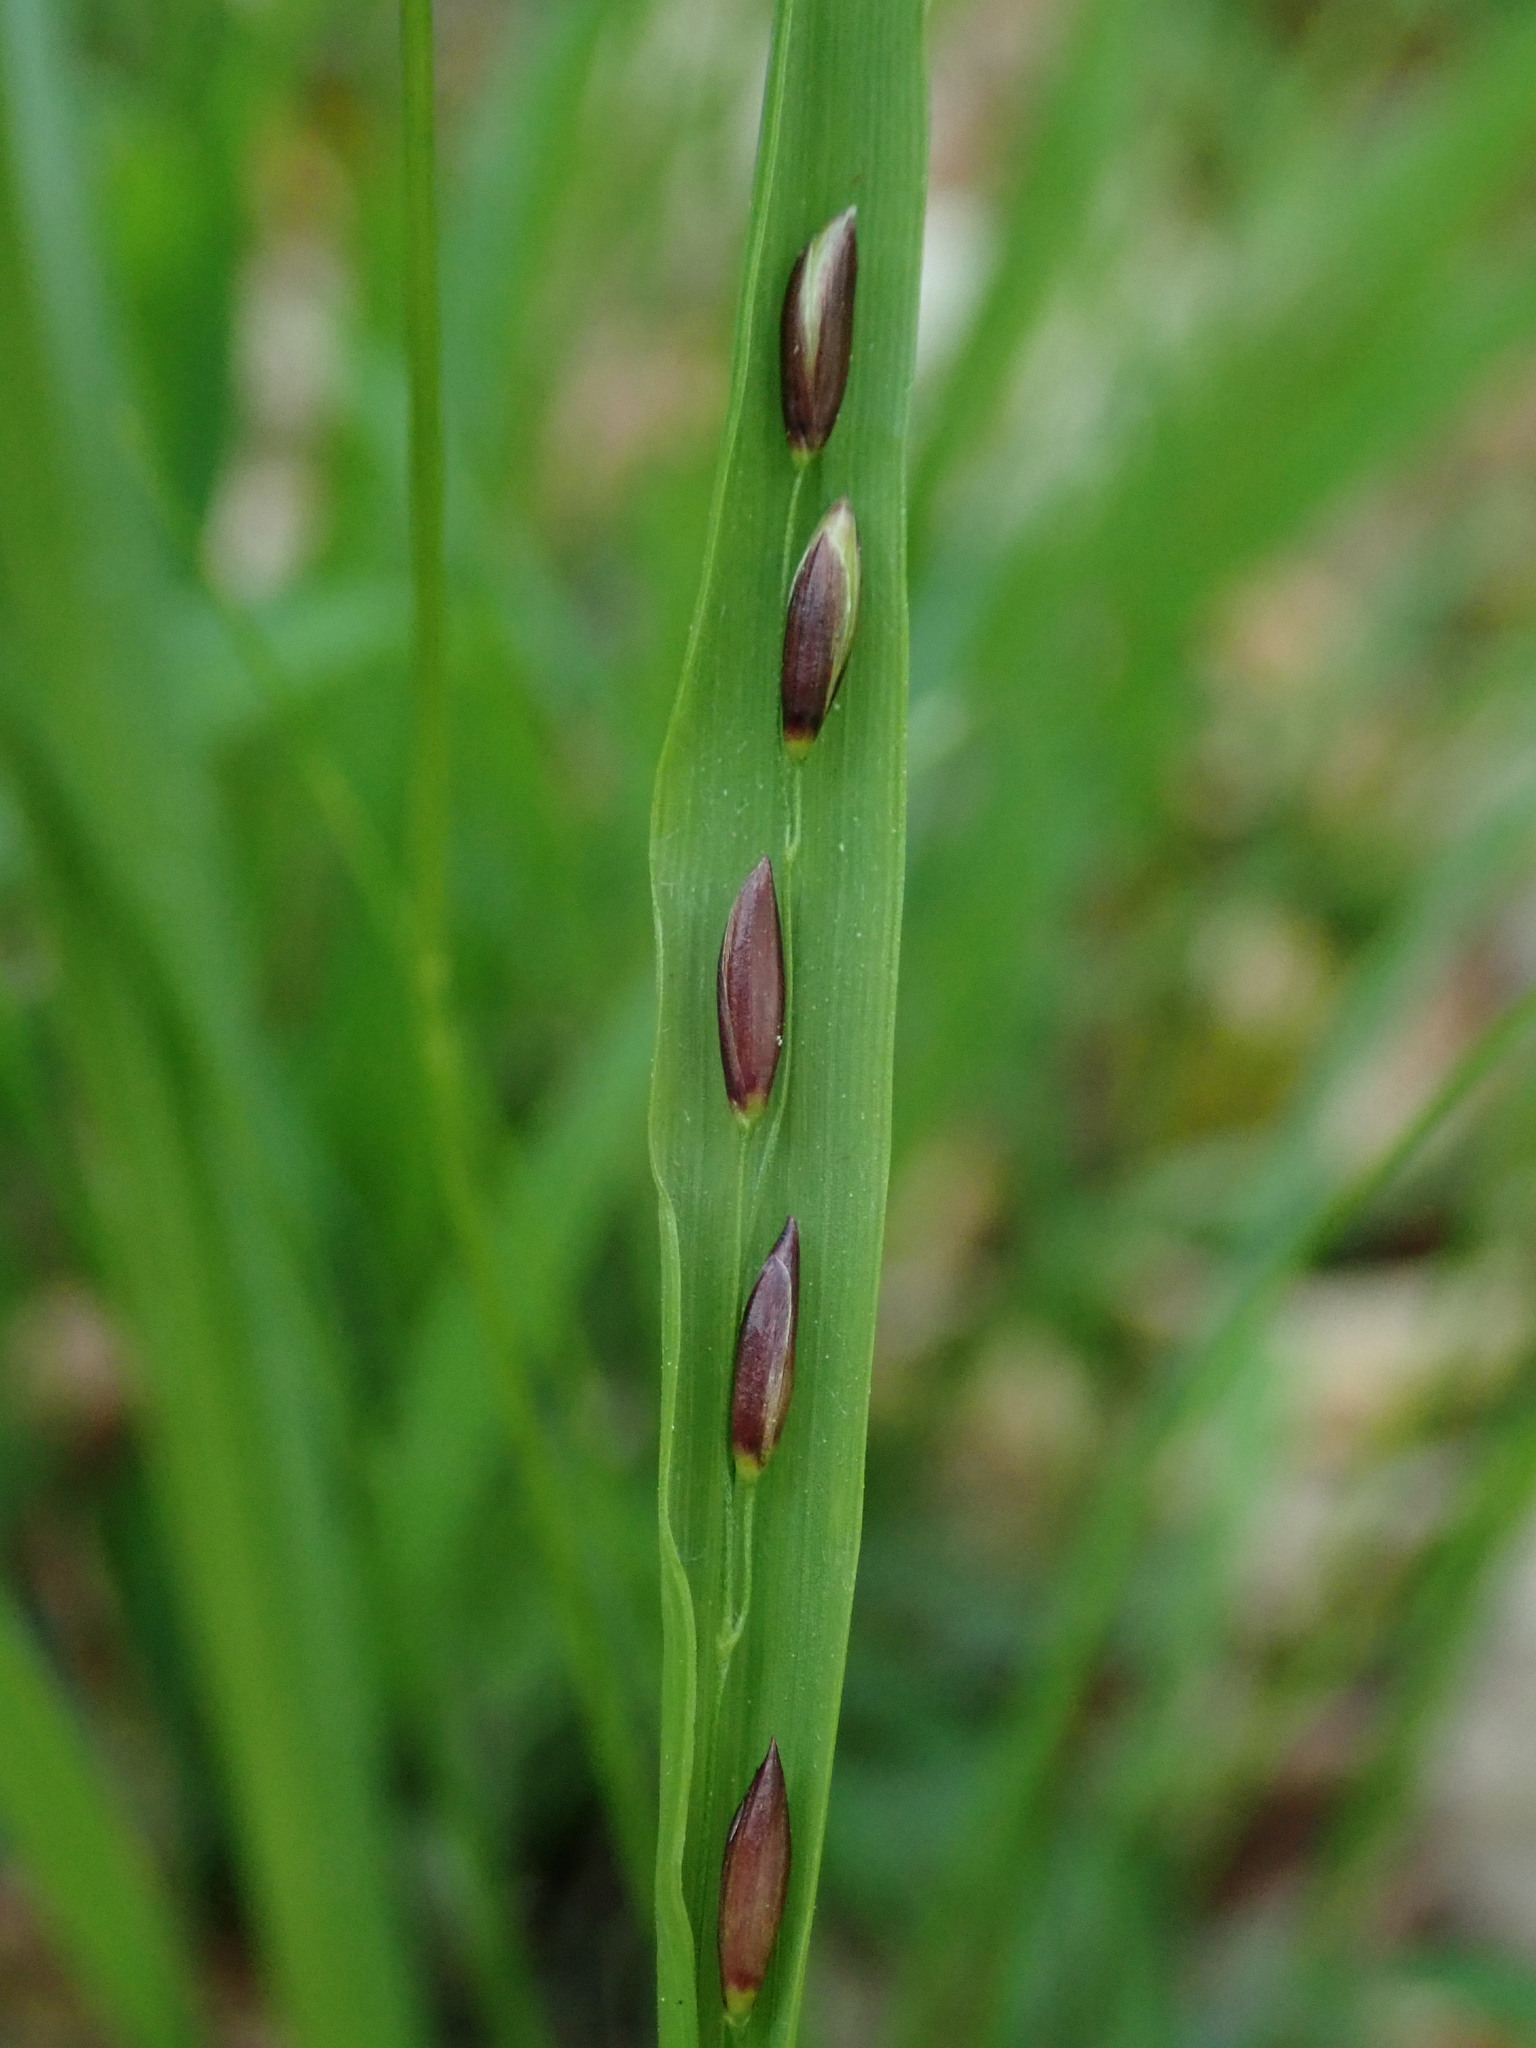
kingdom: Plantae
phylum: Tracheophyta
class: Liliopsida
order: Poales
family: Poaceae
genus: Melica
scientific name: Melica uniflora
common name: Wood melick
